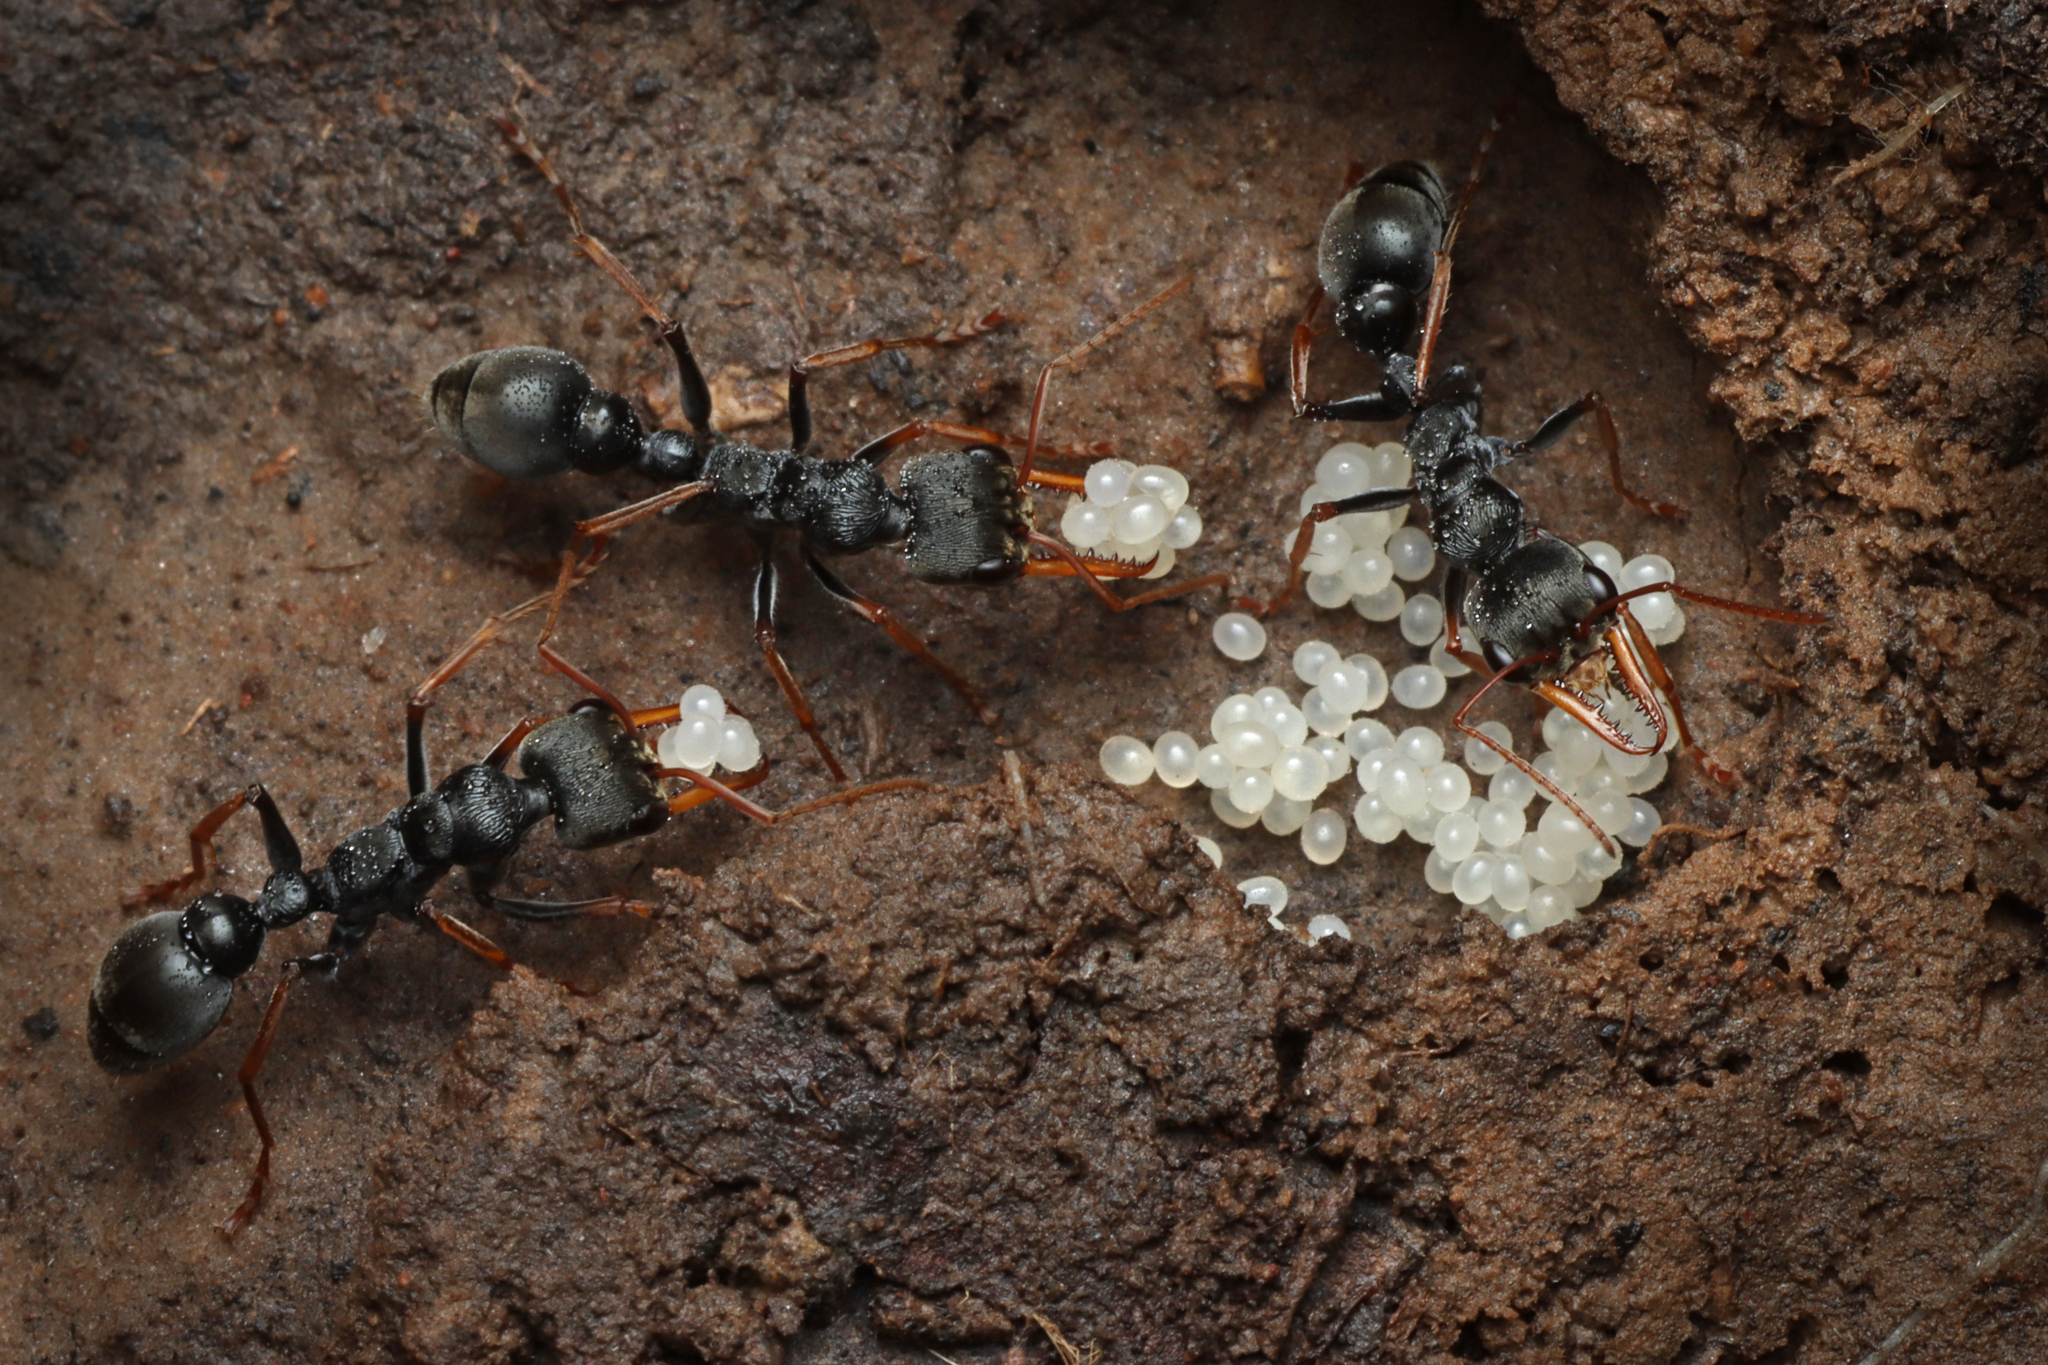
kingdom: Animalia
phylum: Arthropoda
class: Insecta
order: Hymenoptera
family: Formicidae
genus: Myrmecia
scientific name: Myrmecia pilosula
